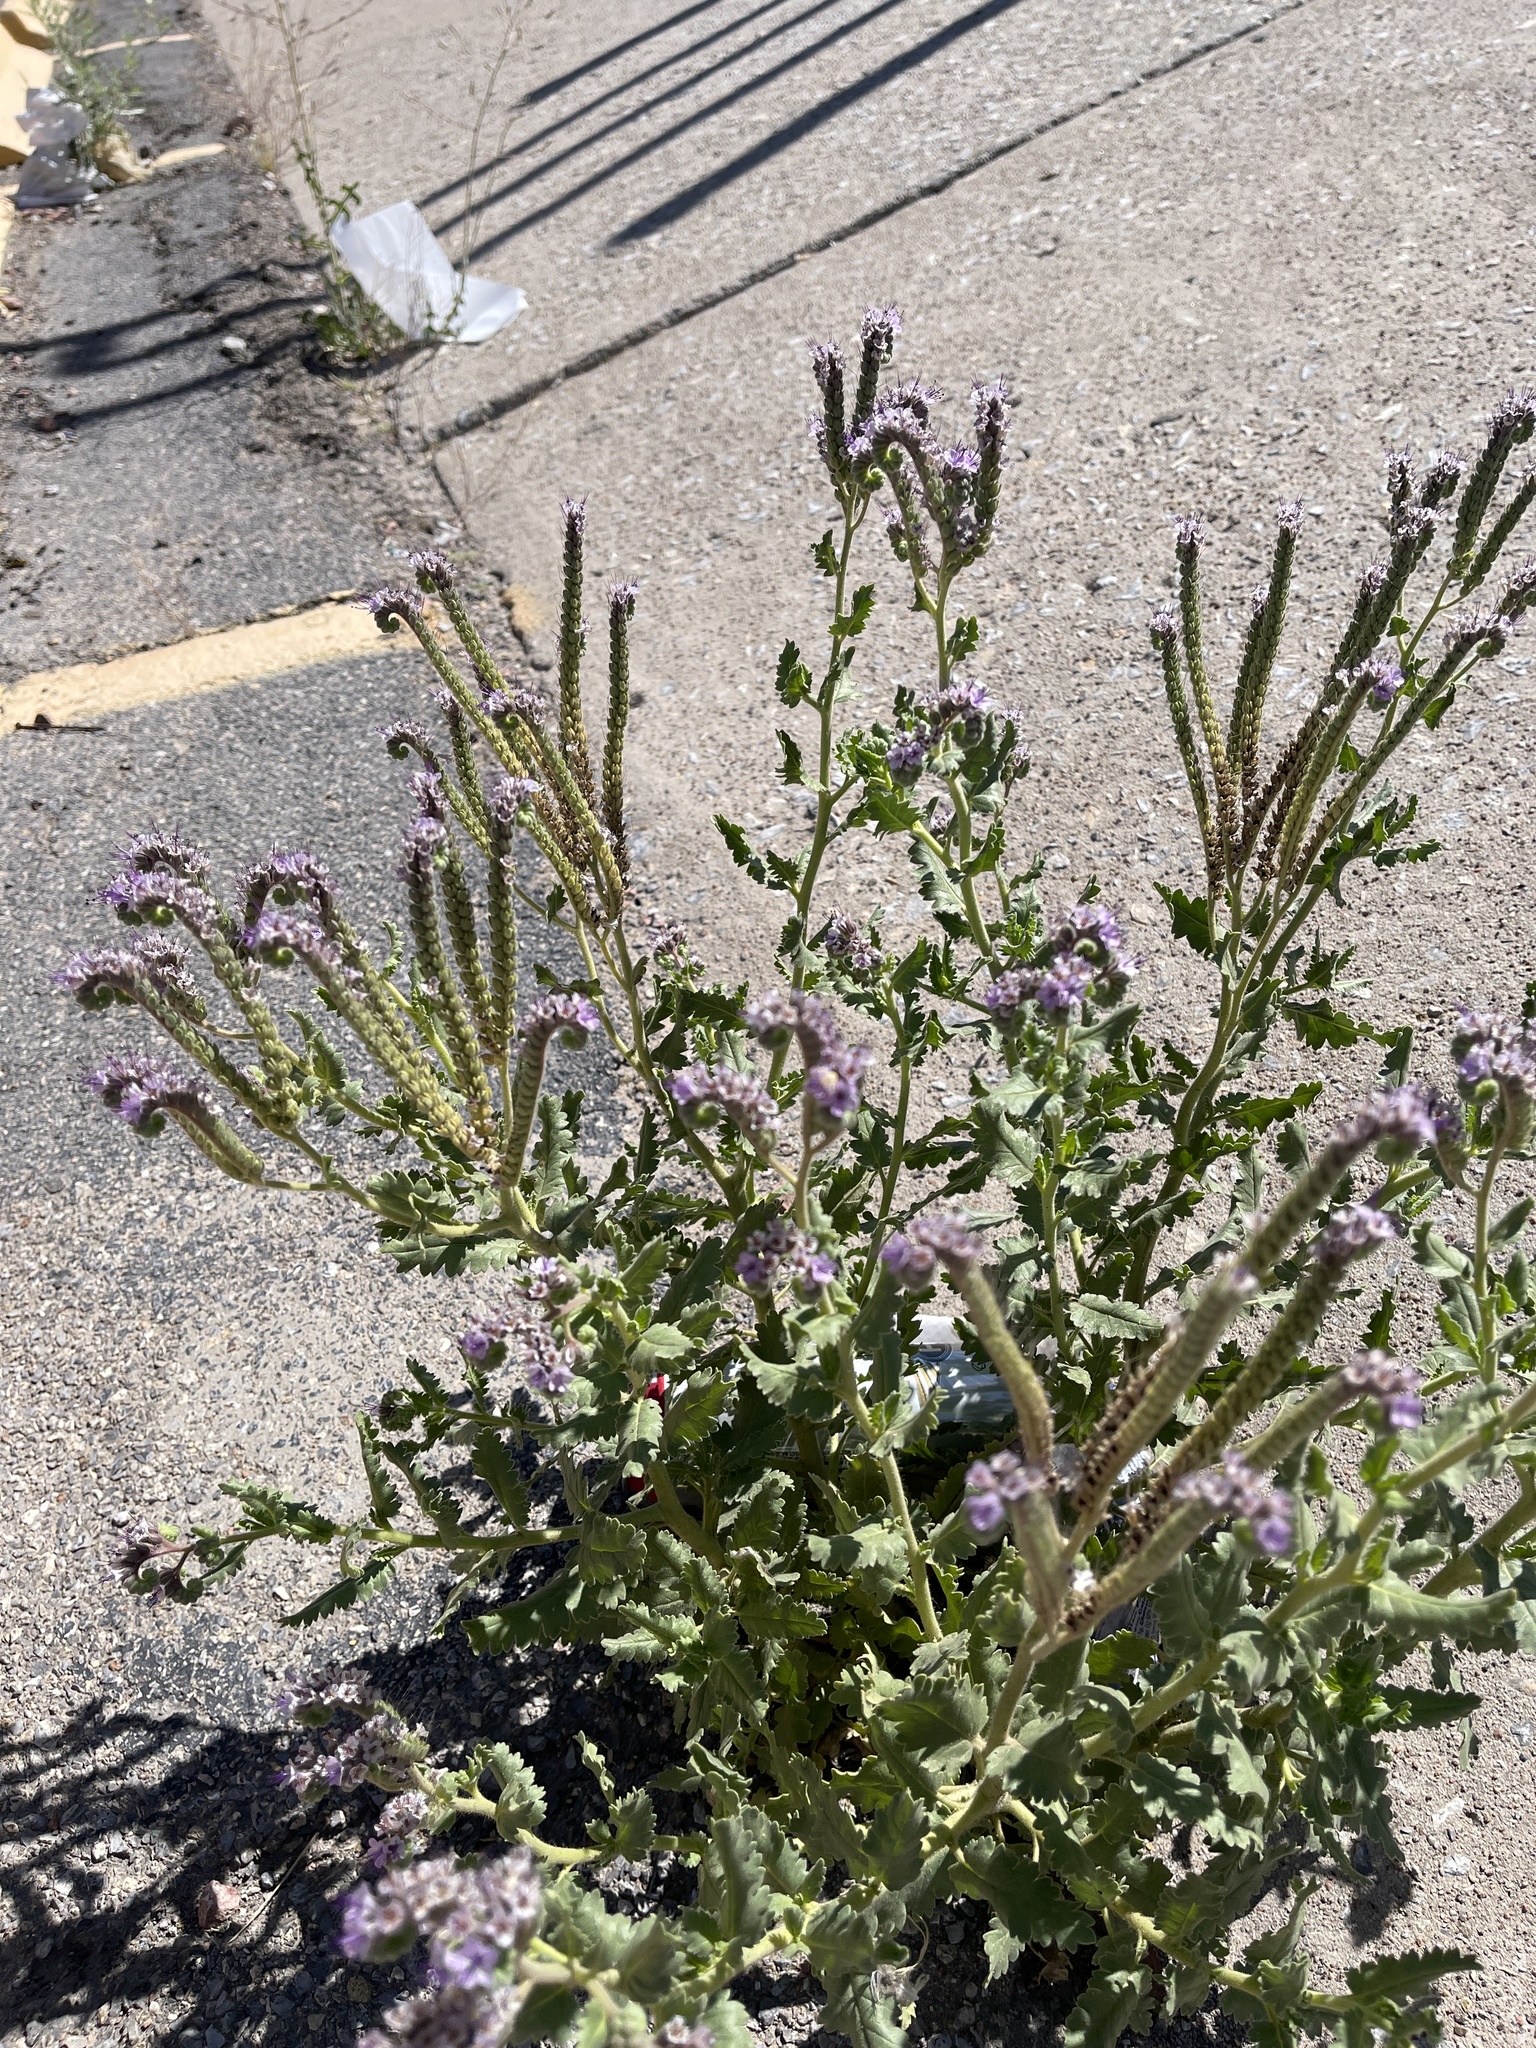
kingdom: Plantae
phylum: Tracheophyta
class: Magnoliopsida
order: Boraginales
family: Hydrophyllaceae
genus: Phacelia
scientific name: Phacelia integrifolia
